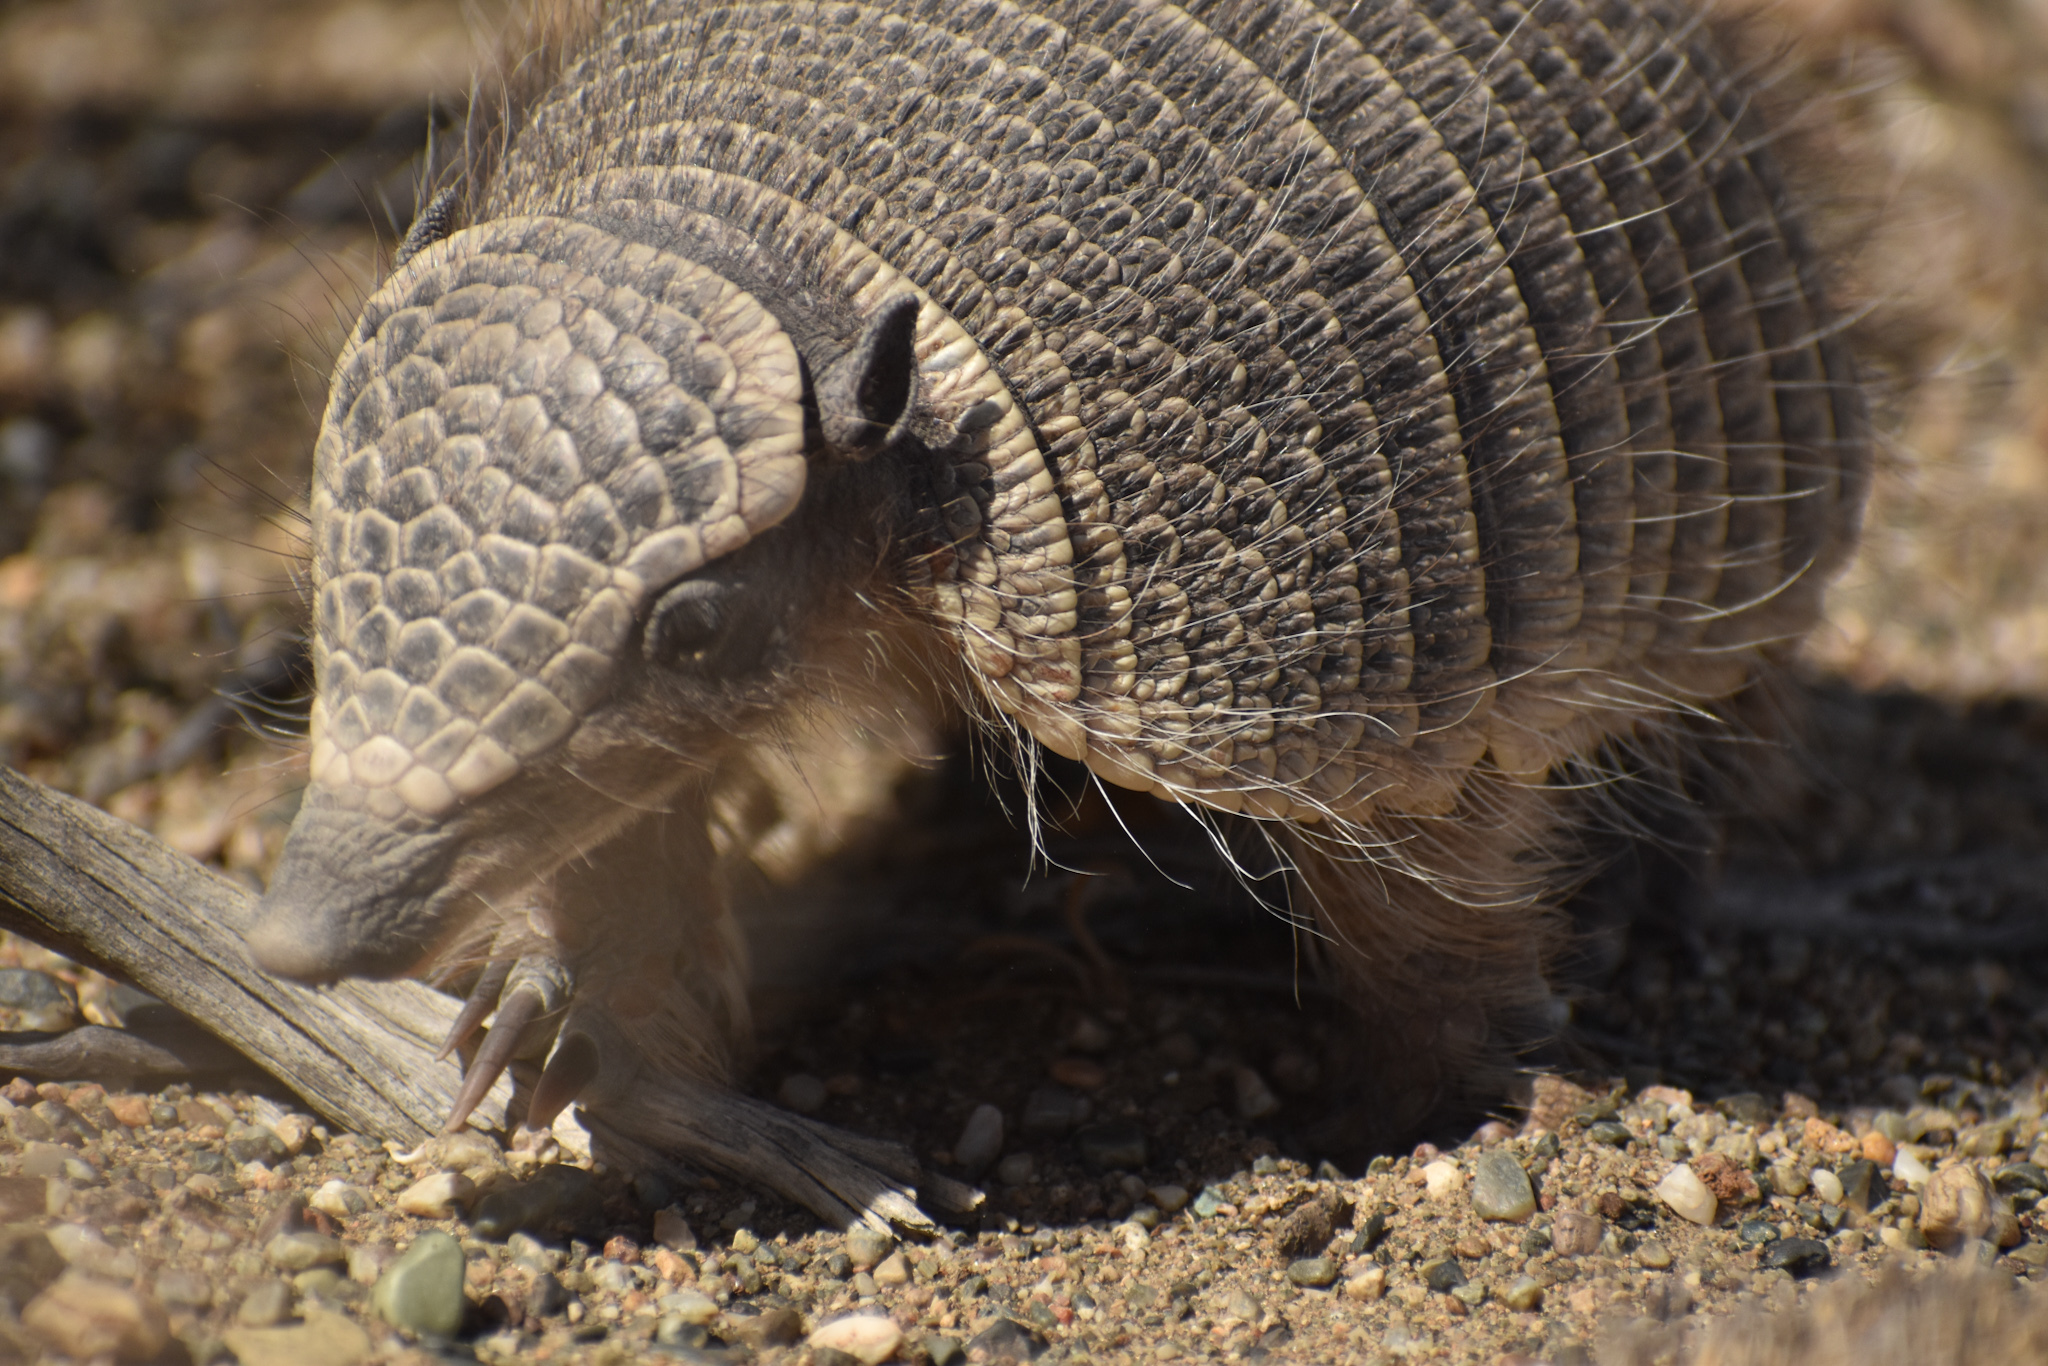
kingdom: Animalia
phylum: Chordata
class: Mammalia
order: Cingulata
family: Dasypodidae
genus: Zaedyus
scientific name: Zaedyus pichiy
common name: Pichi
